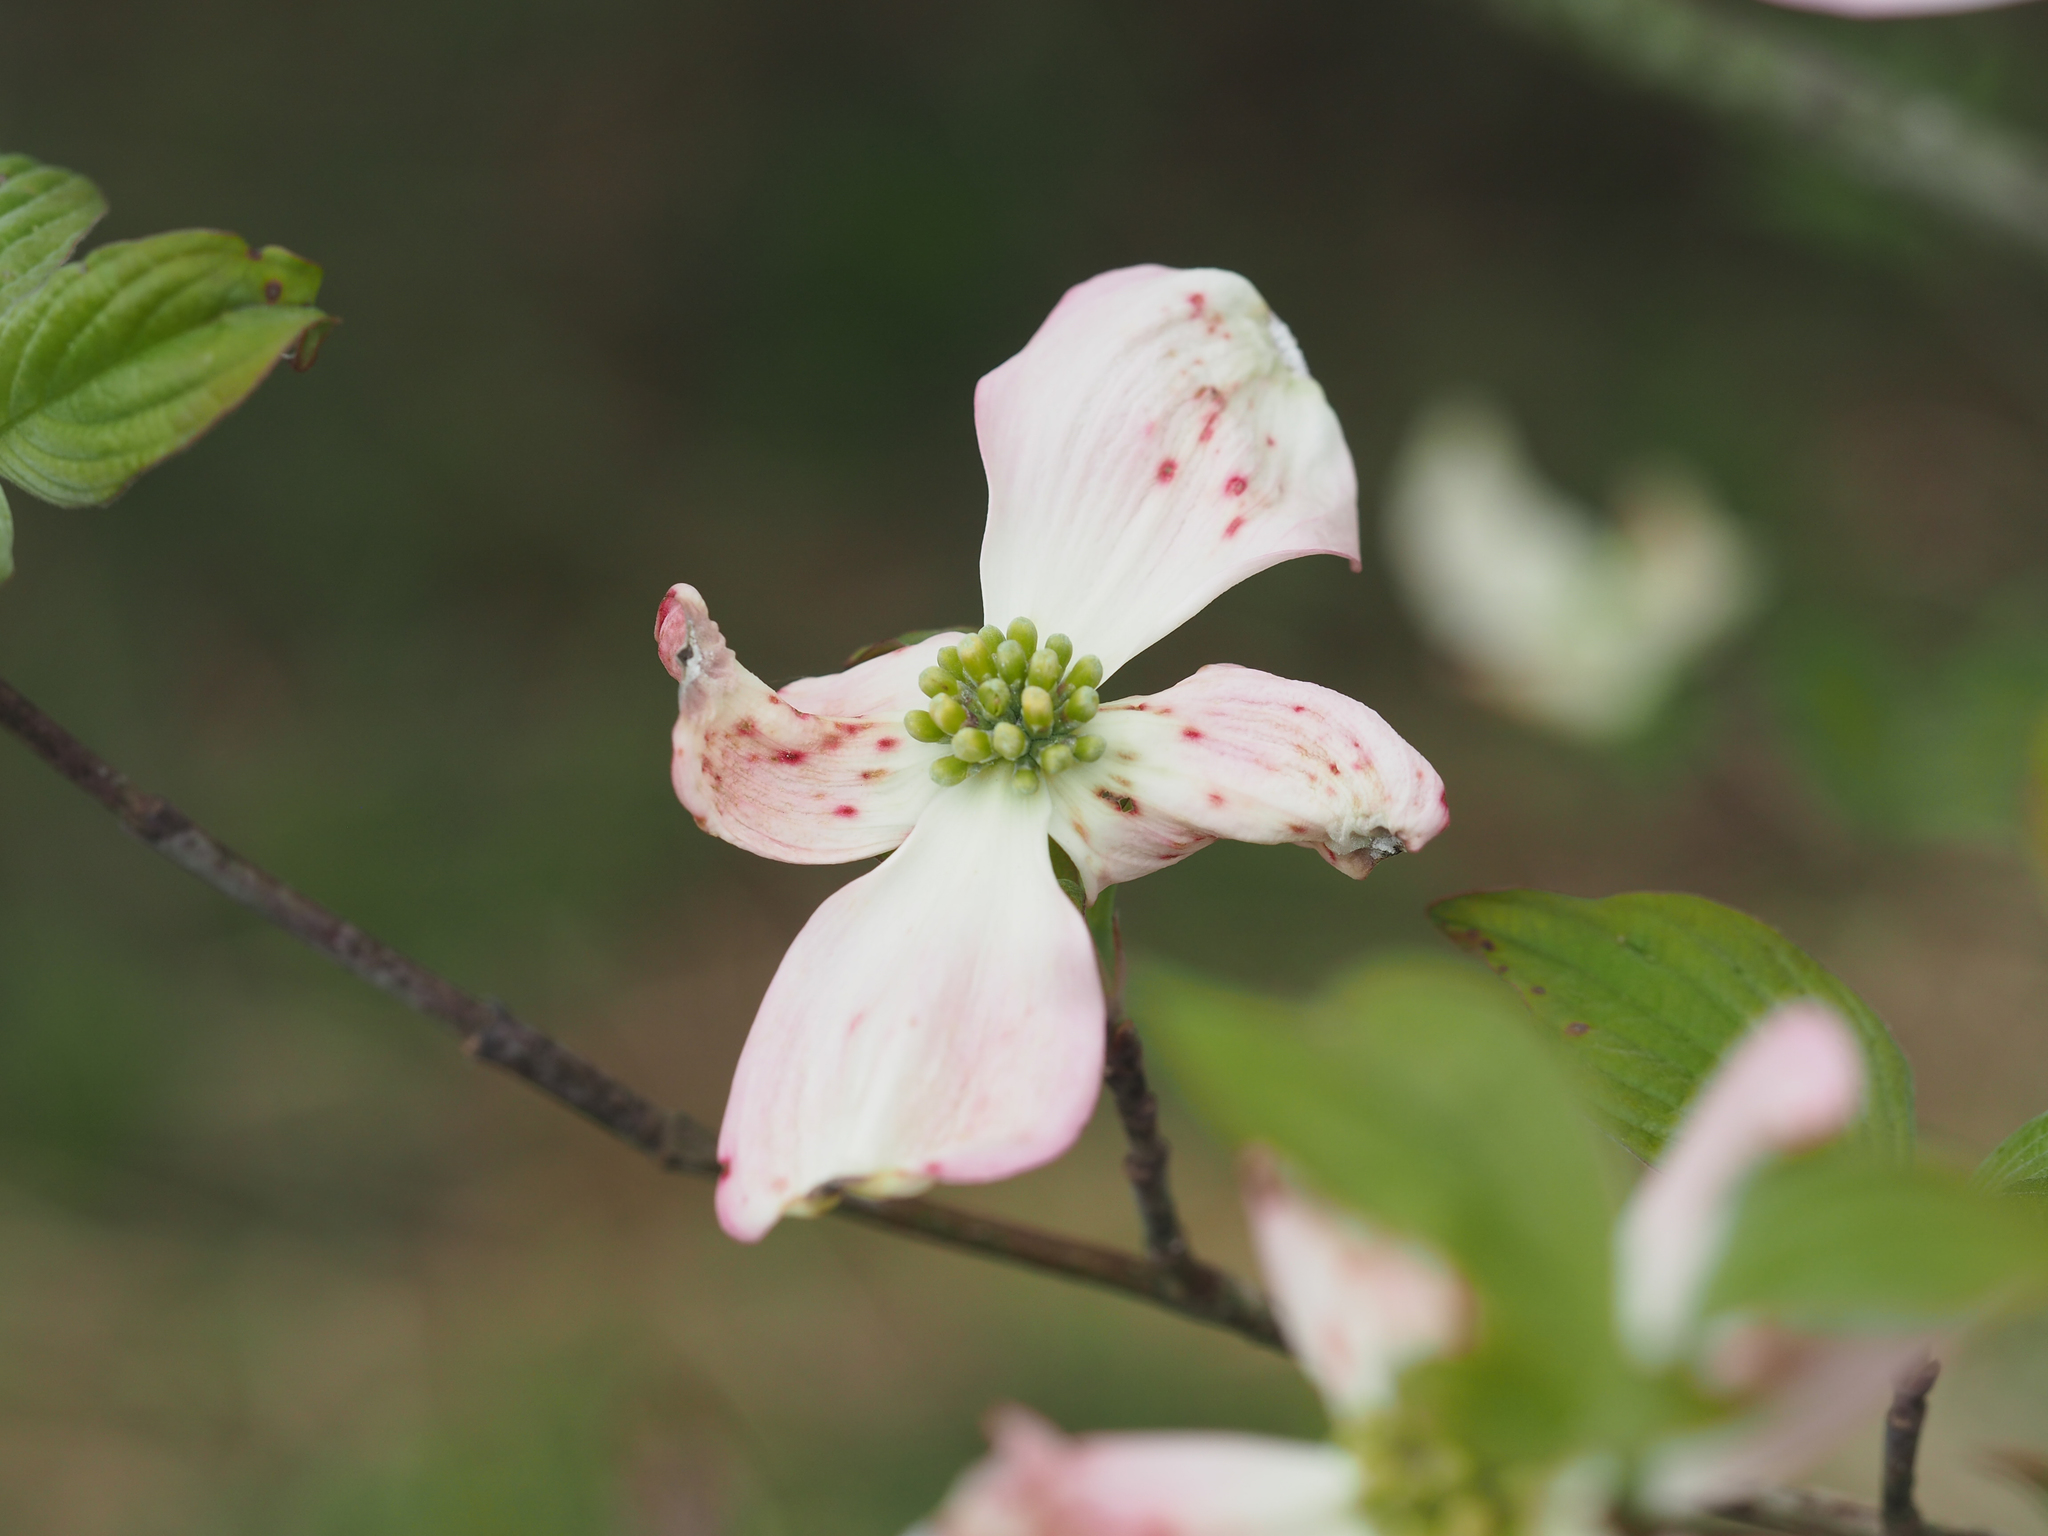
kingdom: Plantae
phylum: Tracheophyta
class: Magnoliopsida
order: Cornales
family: Cornaceae
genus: Cornus
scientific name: Cornus florida
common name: Flowering dogwood
